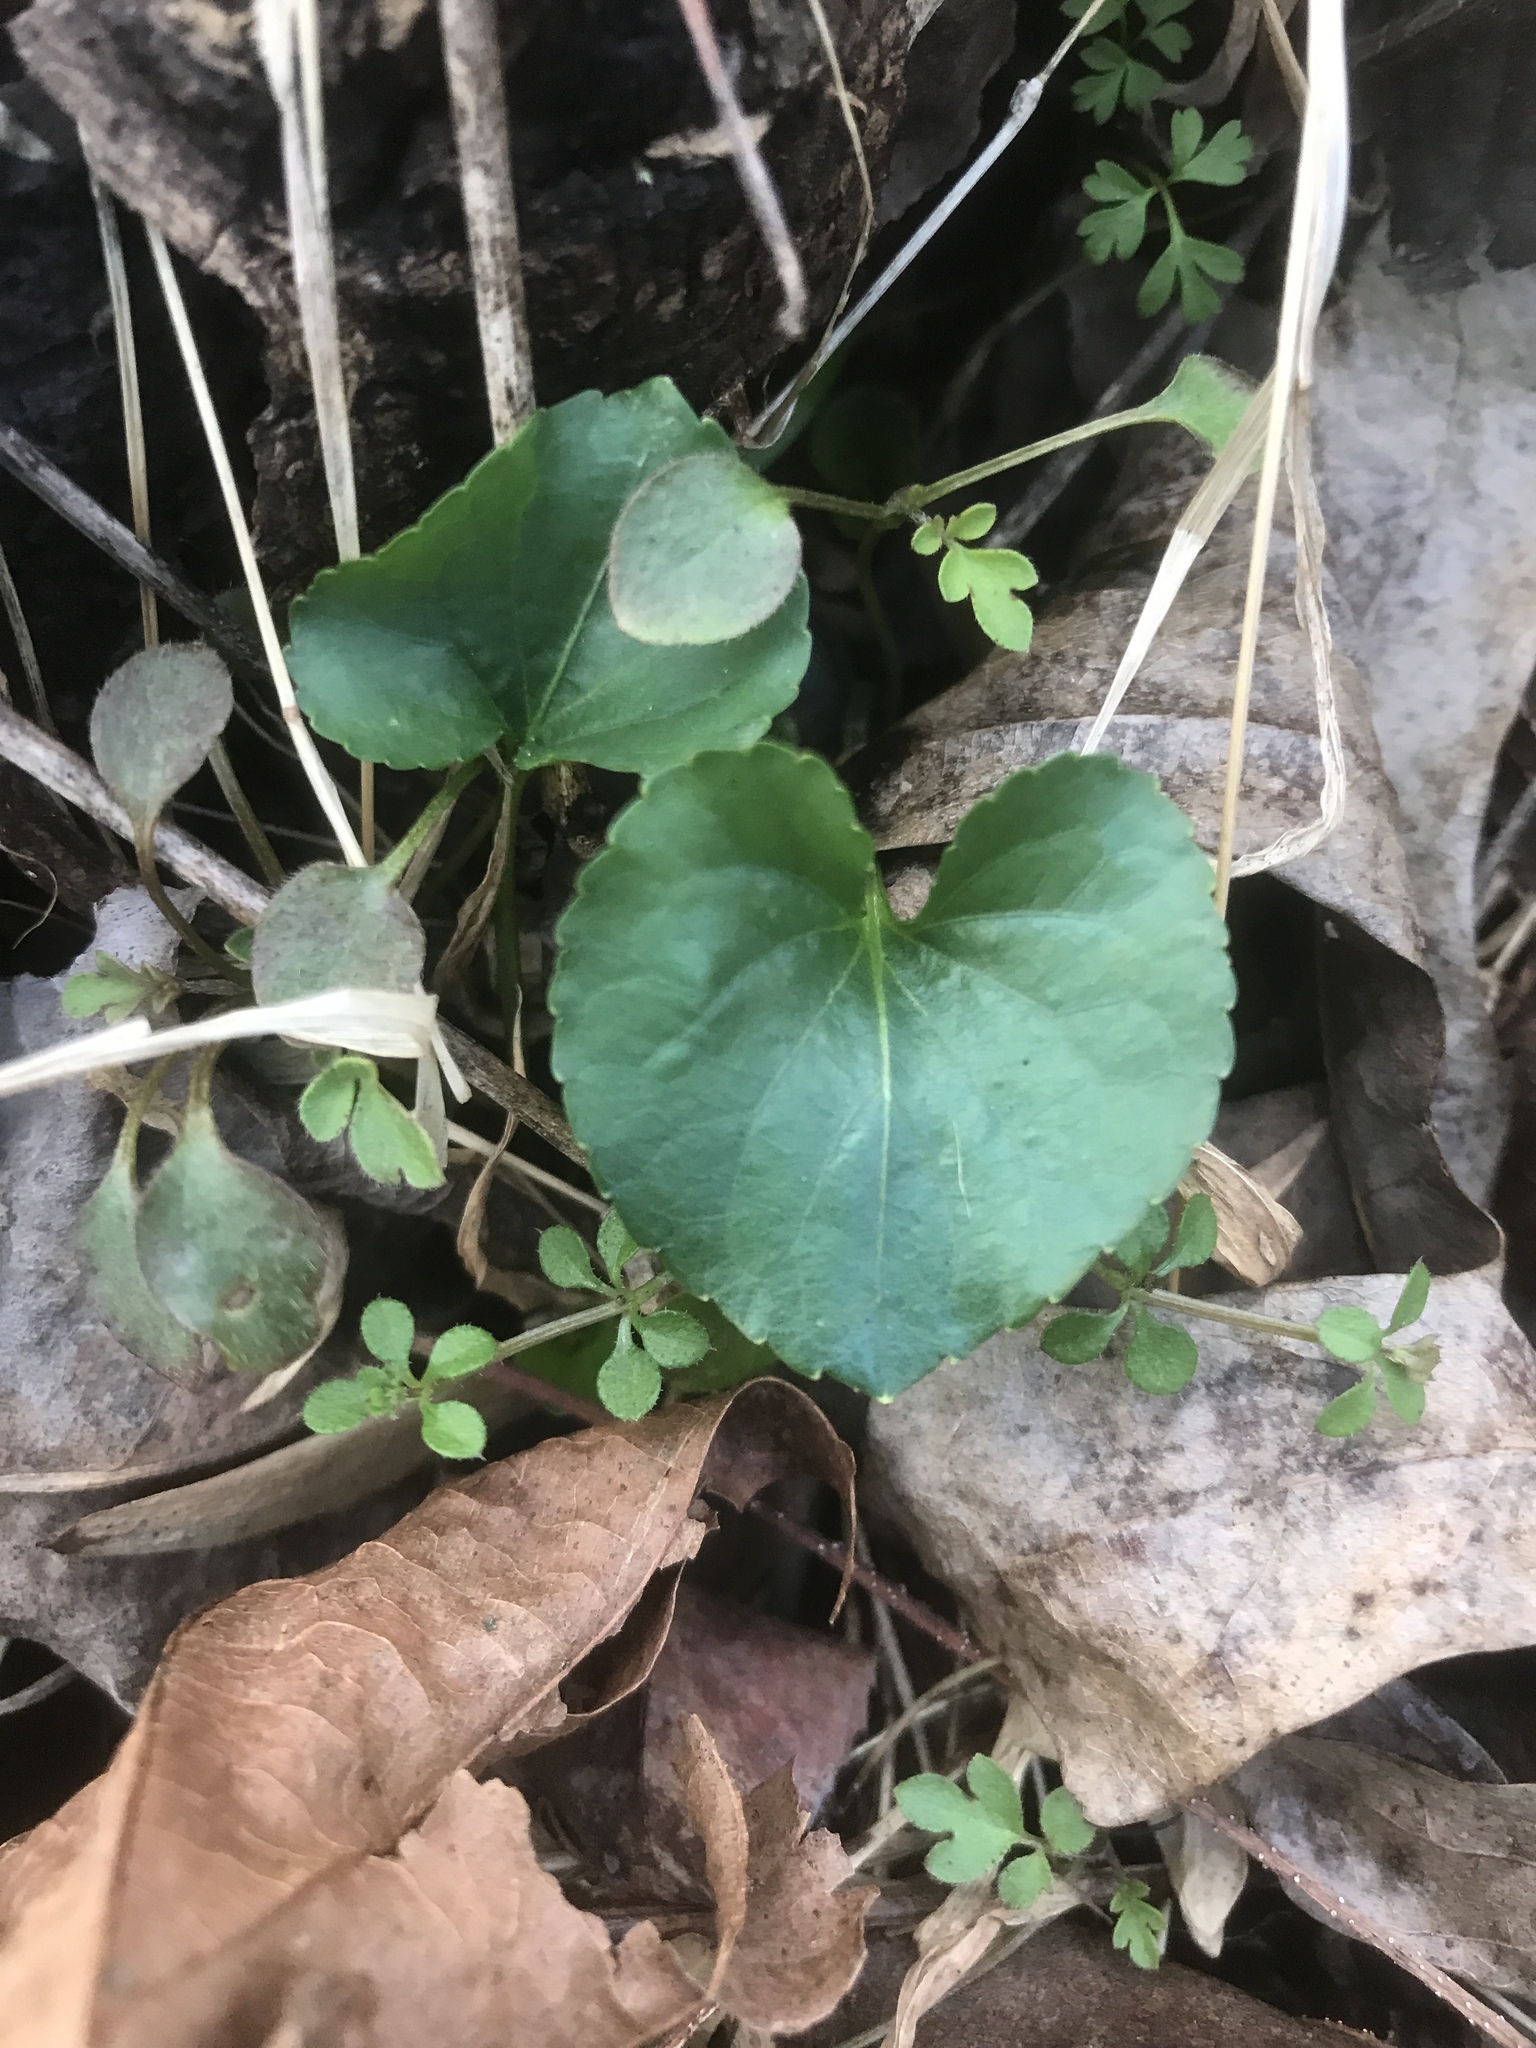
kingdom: Plantae
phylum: Tracheophyta
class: Magnoliopsida
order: Malpighiales
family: Violaceae
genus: Viola
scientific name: Viola sororia
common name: Dooryard violet
